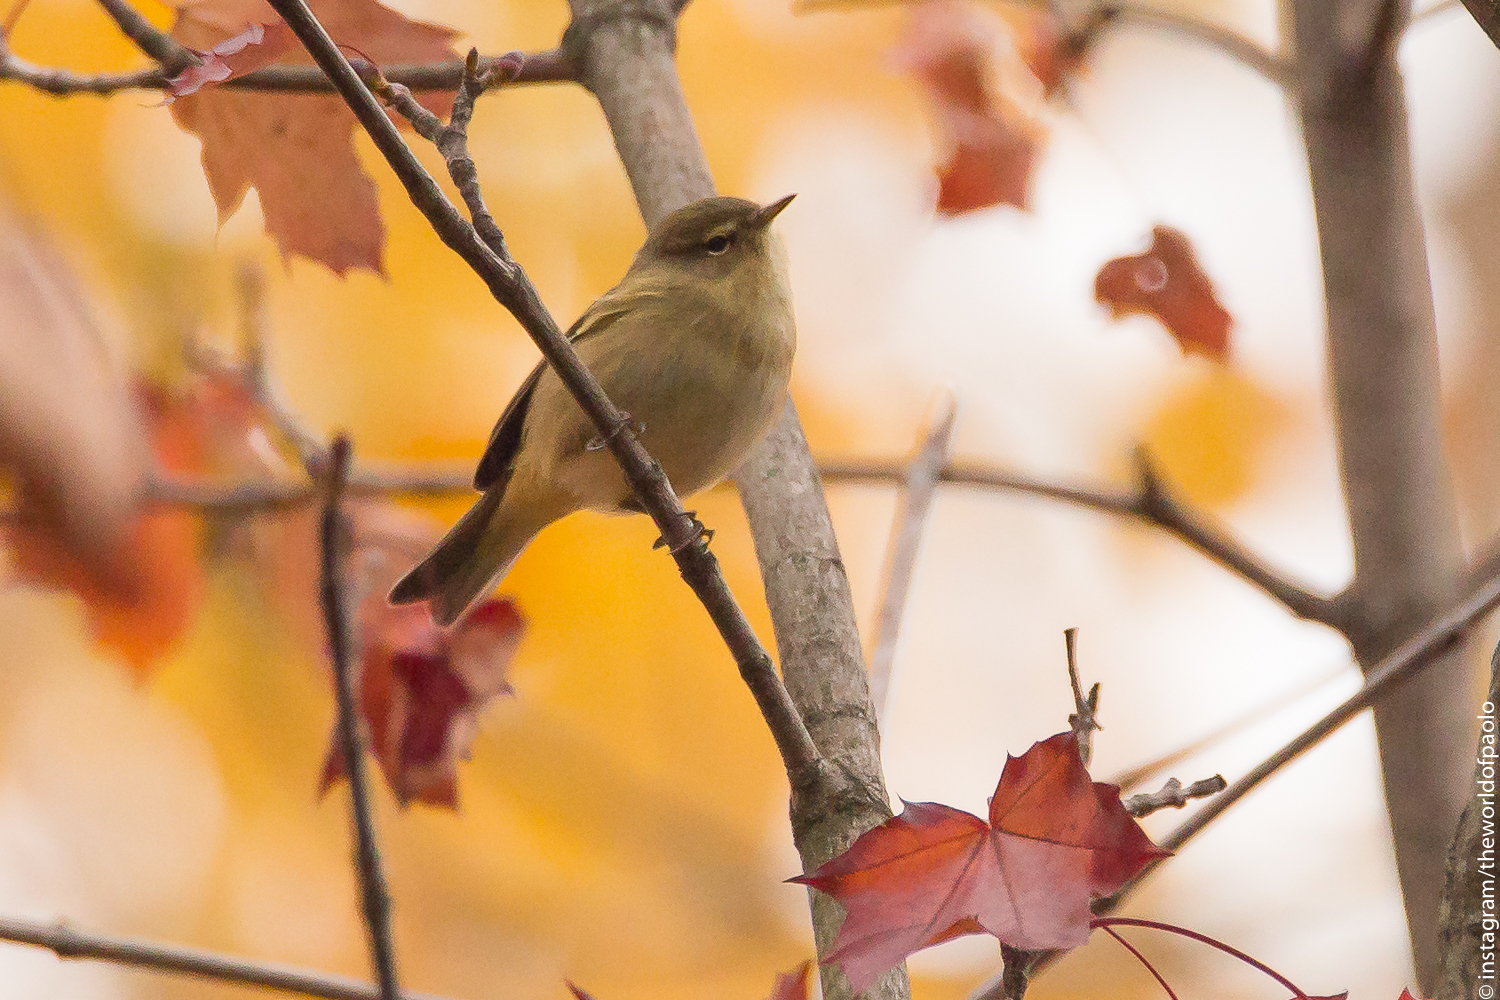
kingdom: Animalia
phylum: Chordata
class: Aves
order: Passeriformes
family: Phylloscopidae
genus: Phylloscopus
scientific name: Phylloscopus collybita
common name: Common chiffchaff
